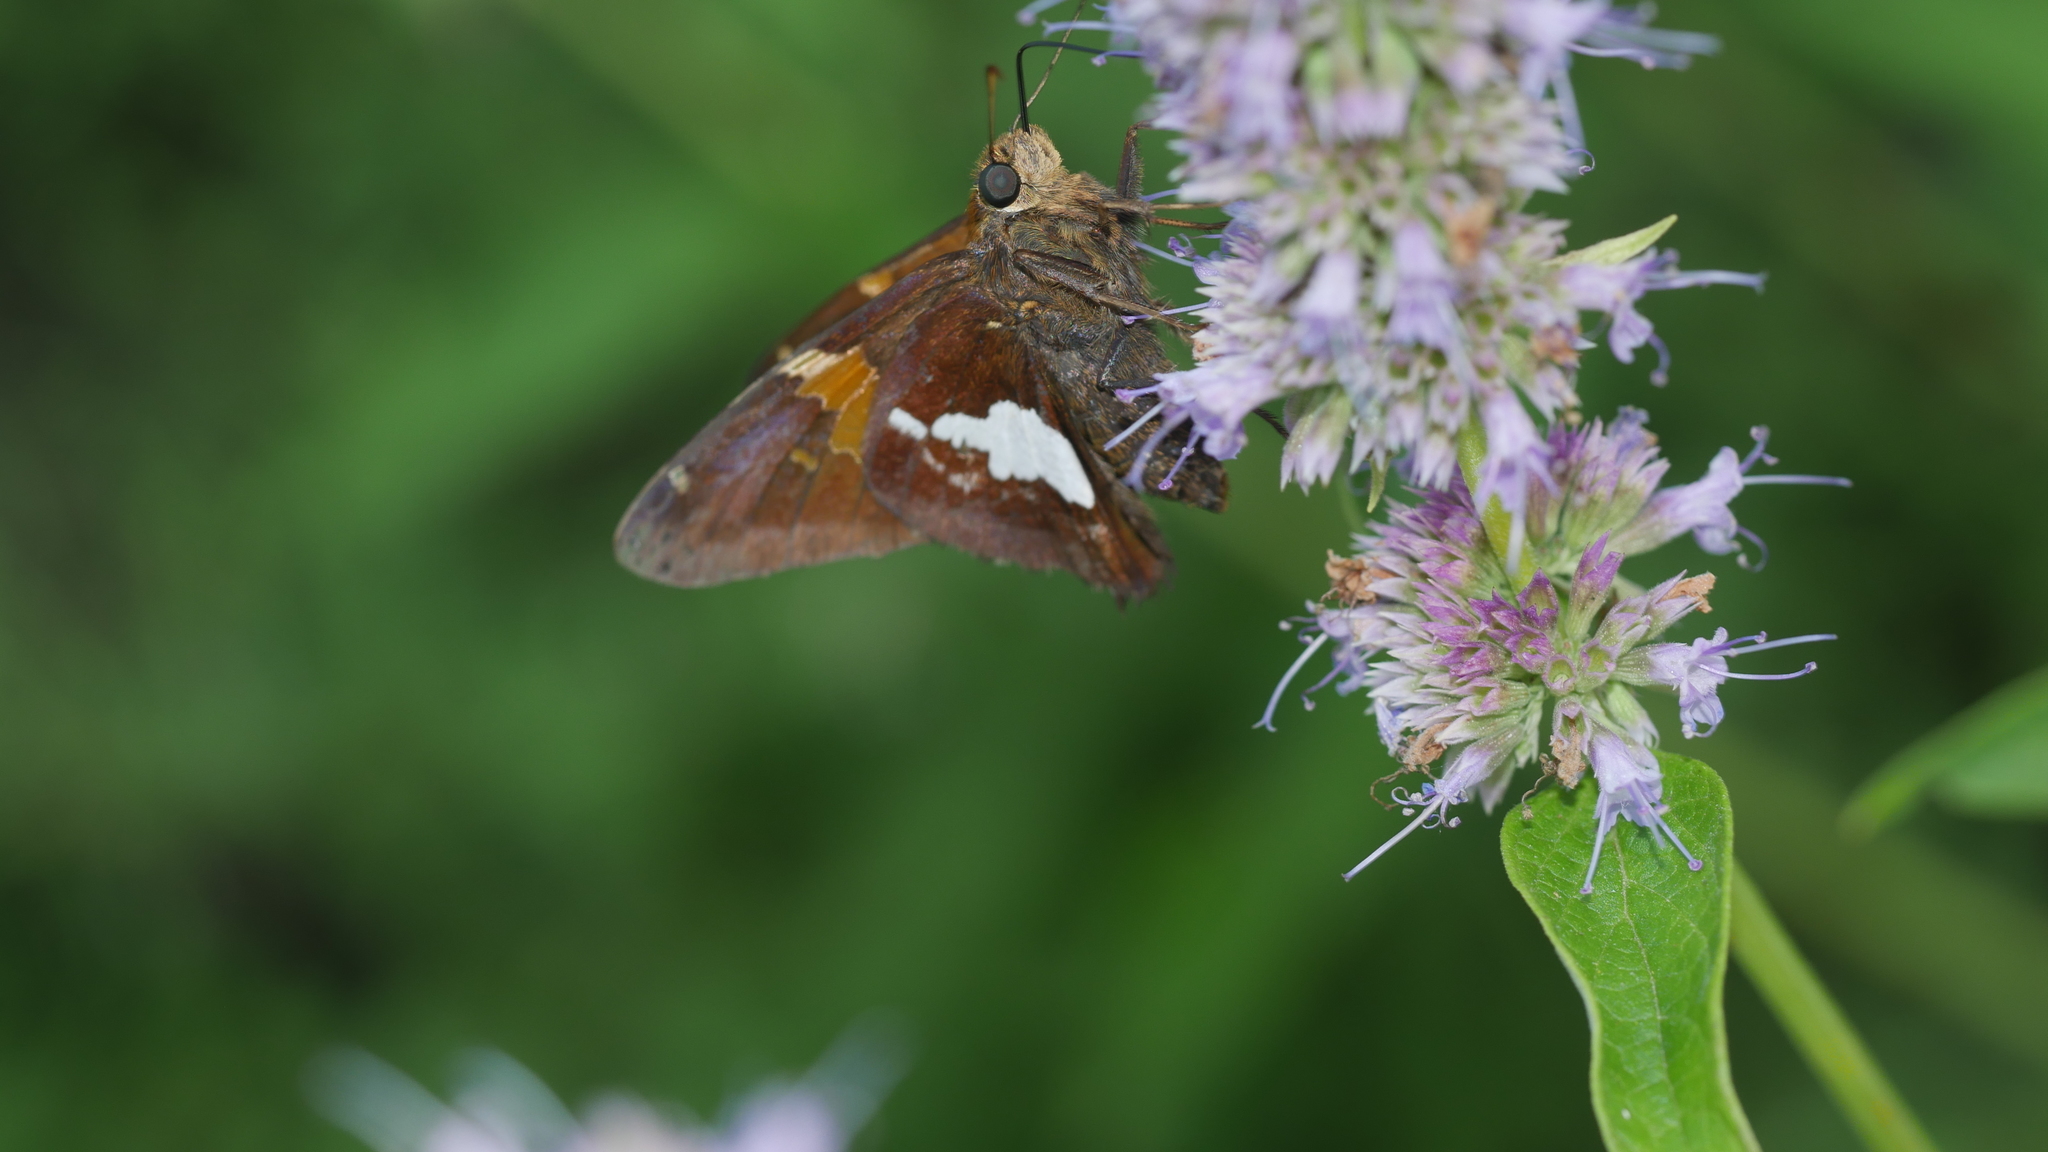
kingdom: Animalia
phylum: Arthropoda
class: Insecta
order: Lepidoptera
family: Hesperiidae
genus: Epargyreus
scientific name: Epargyreus clarus
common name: Silver-spotted skipper
